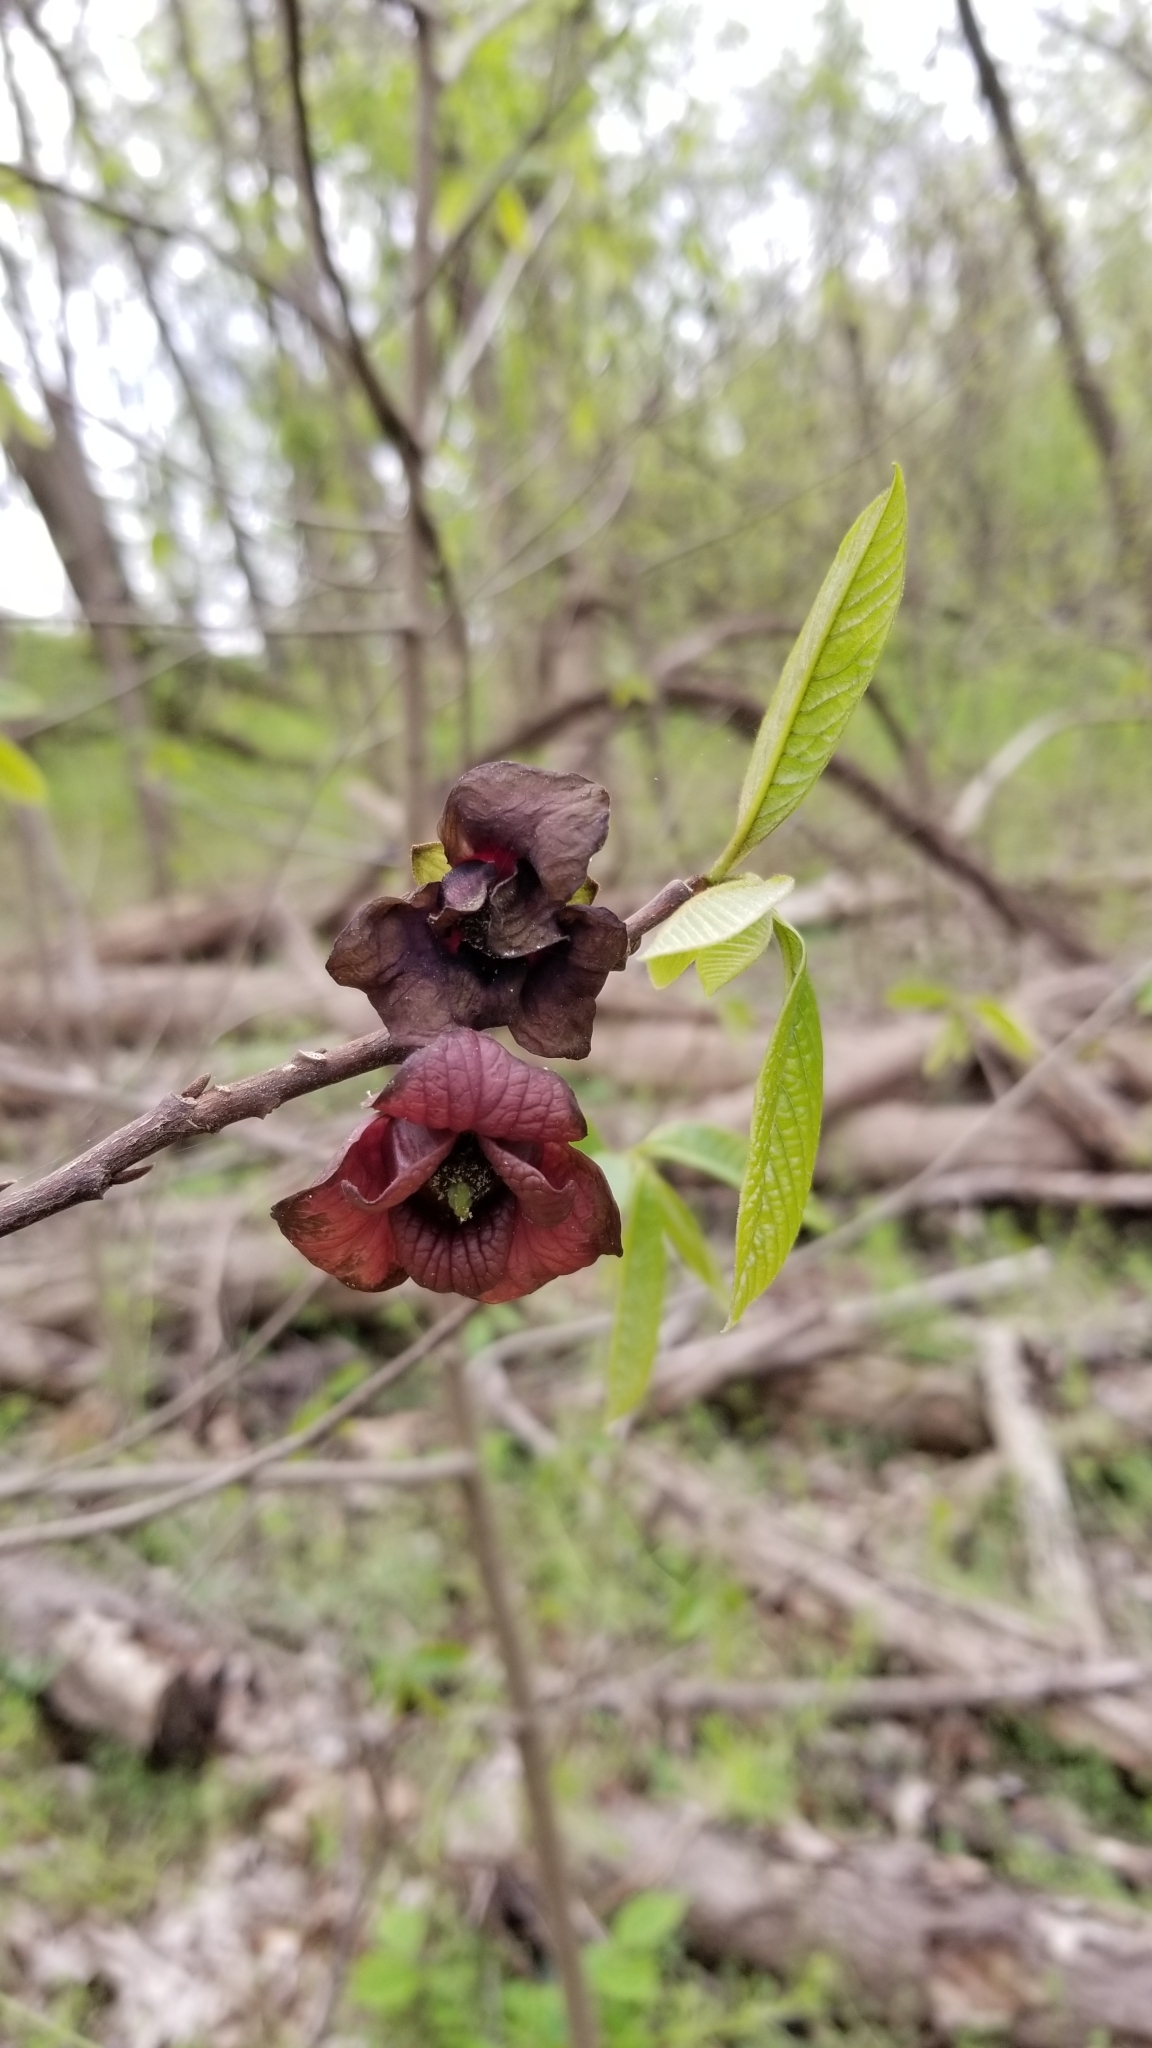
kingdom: Plantae
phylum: Tracheophyta
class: Magnoliopsida
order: Magnoliales
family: Annonaceae
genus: Asimina
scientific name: Asimina triloba
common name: Dog-banana
